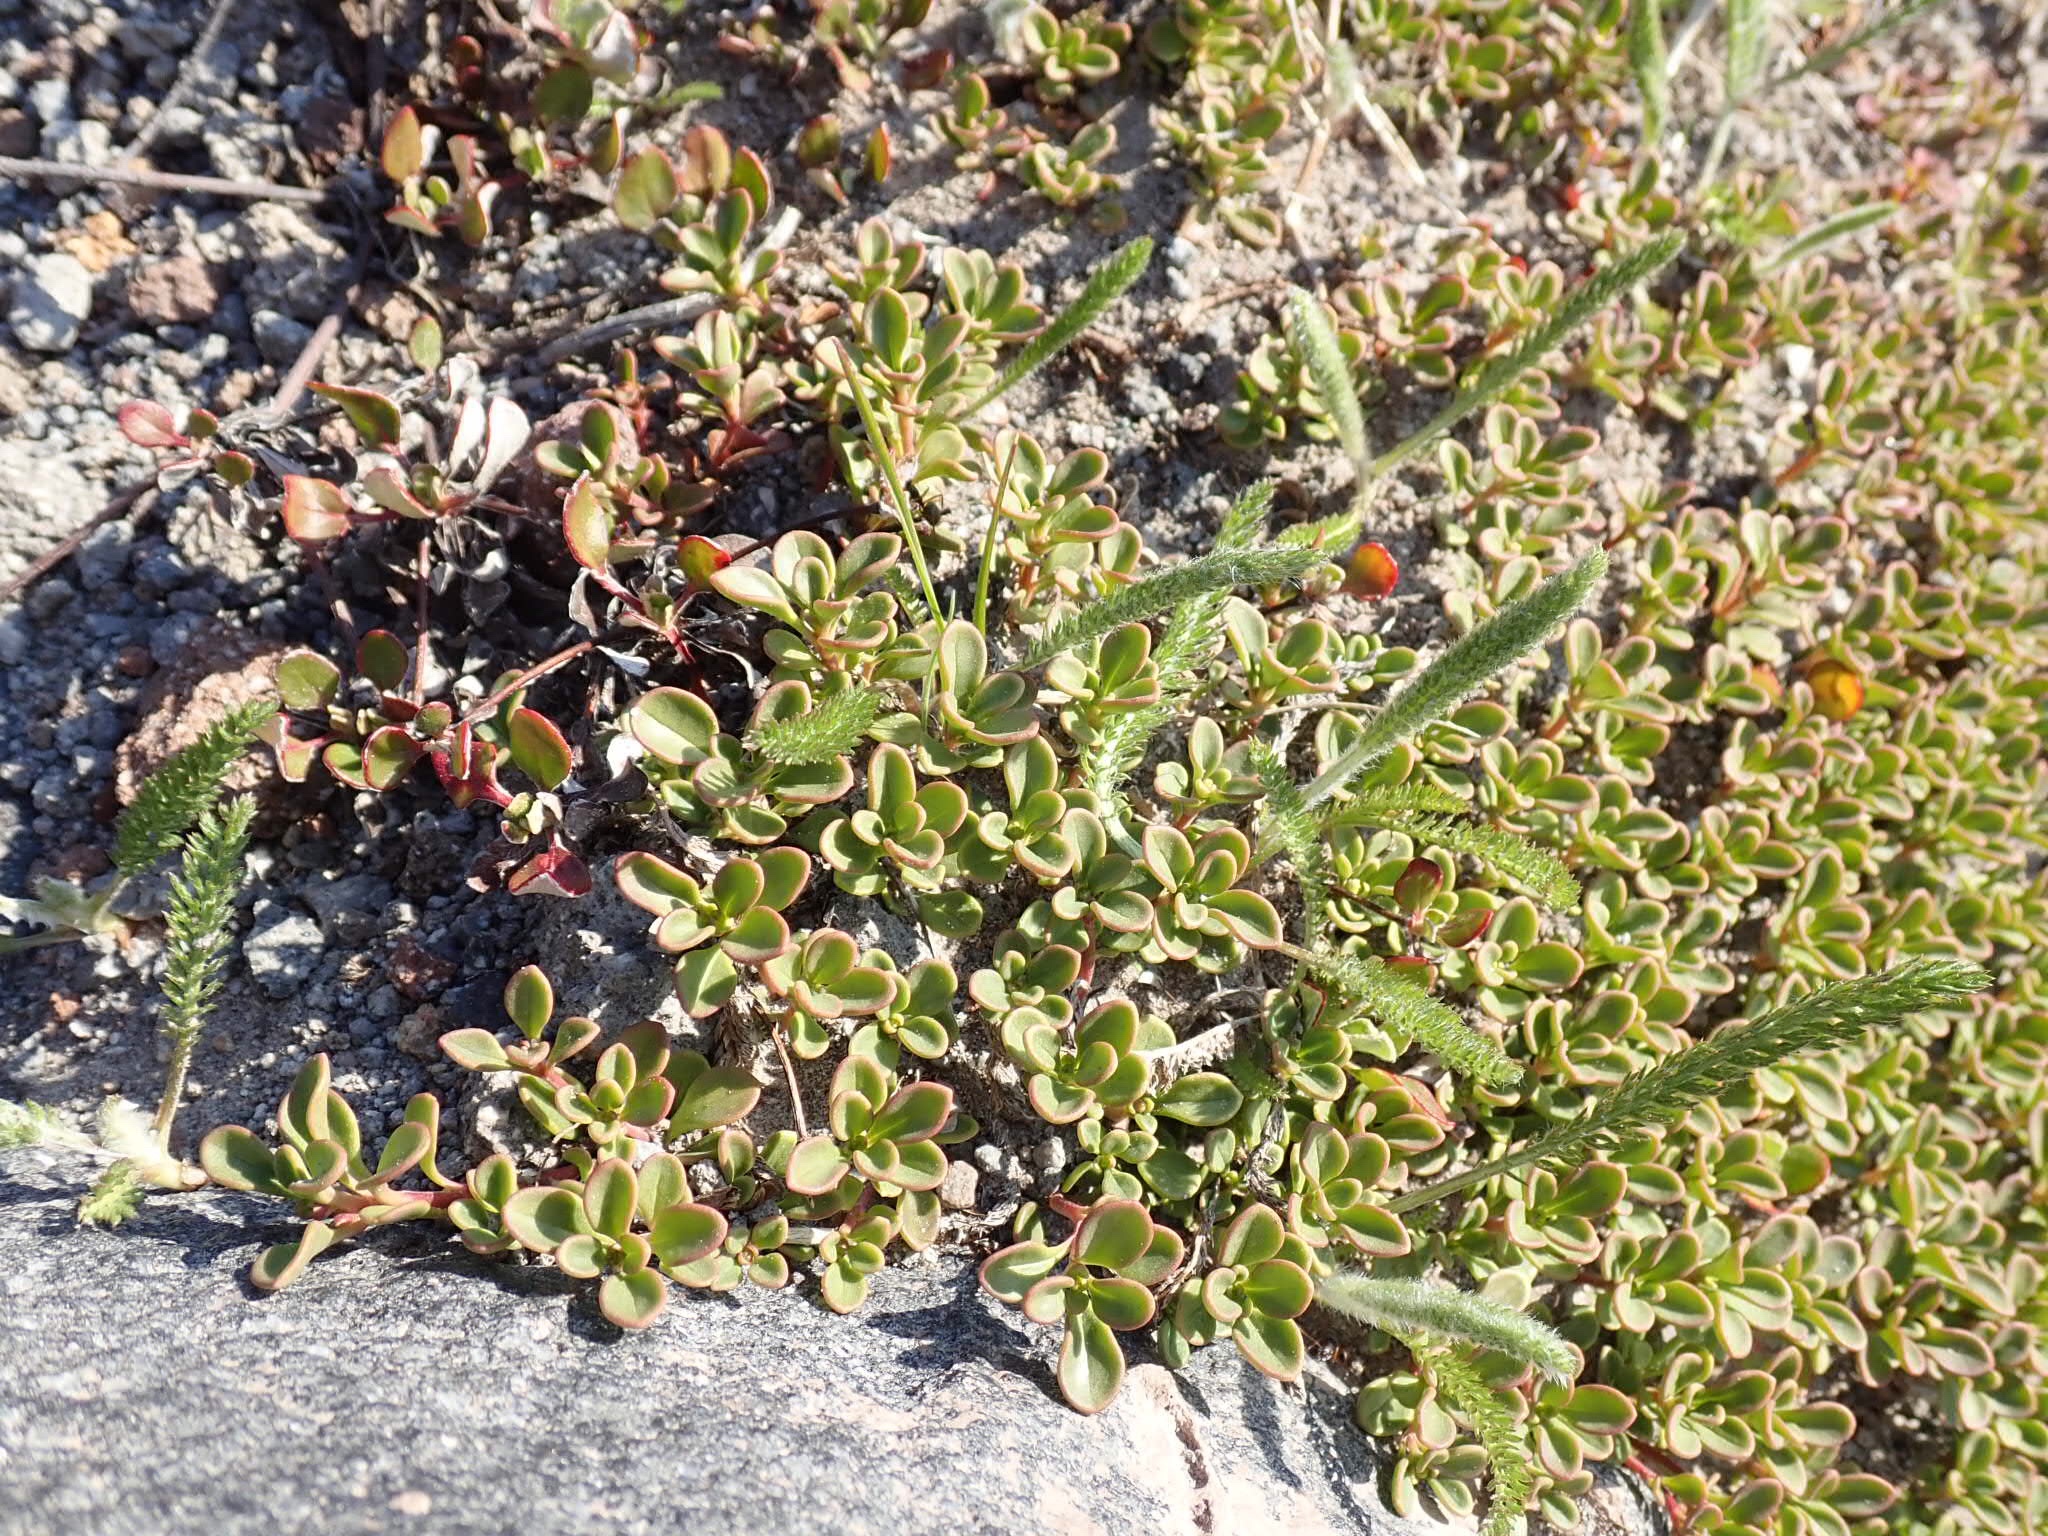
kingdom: Plantae
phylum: Tracheophyta
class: Magnoliopsida
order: Lamiales
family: Plantaginaceae
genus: Penstemon
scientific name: Penstemon davidsonii
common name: Davidson's penstemon
